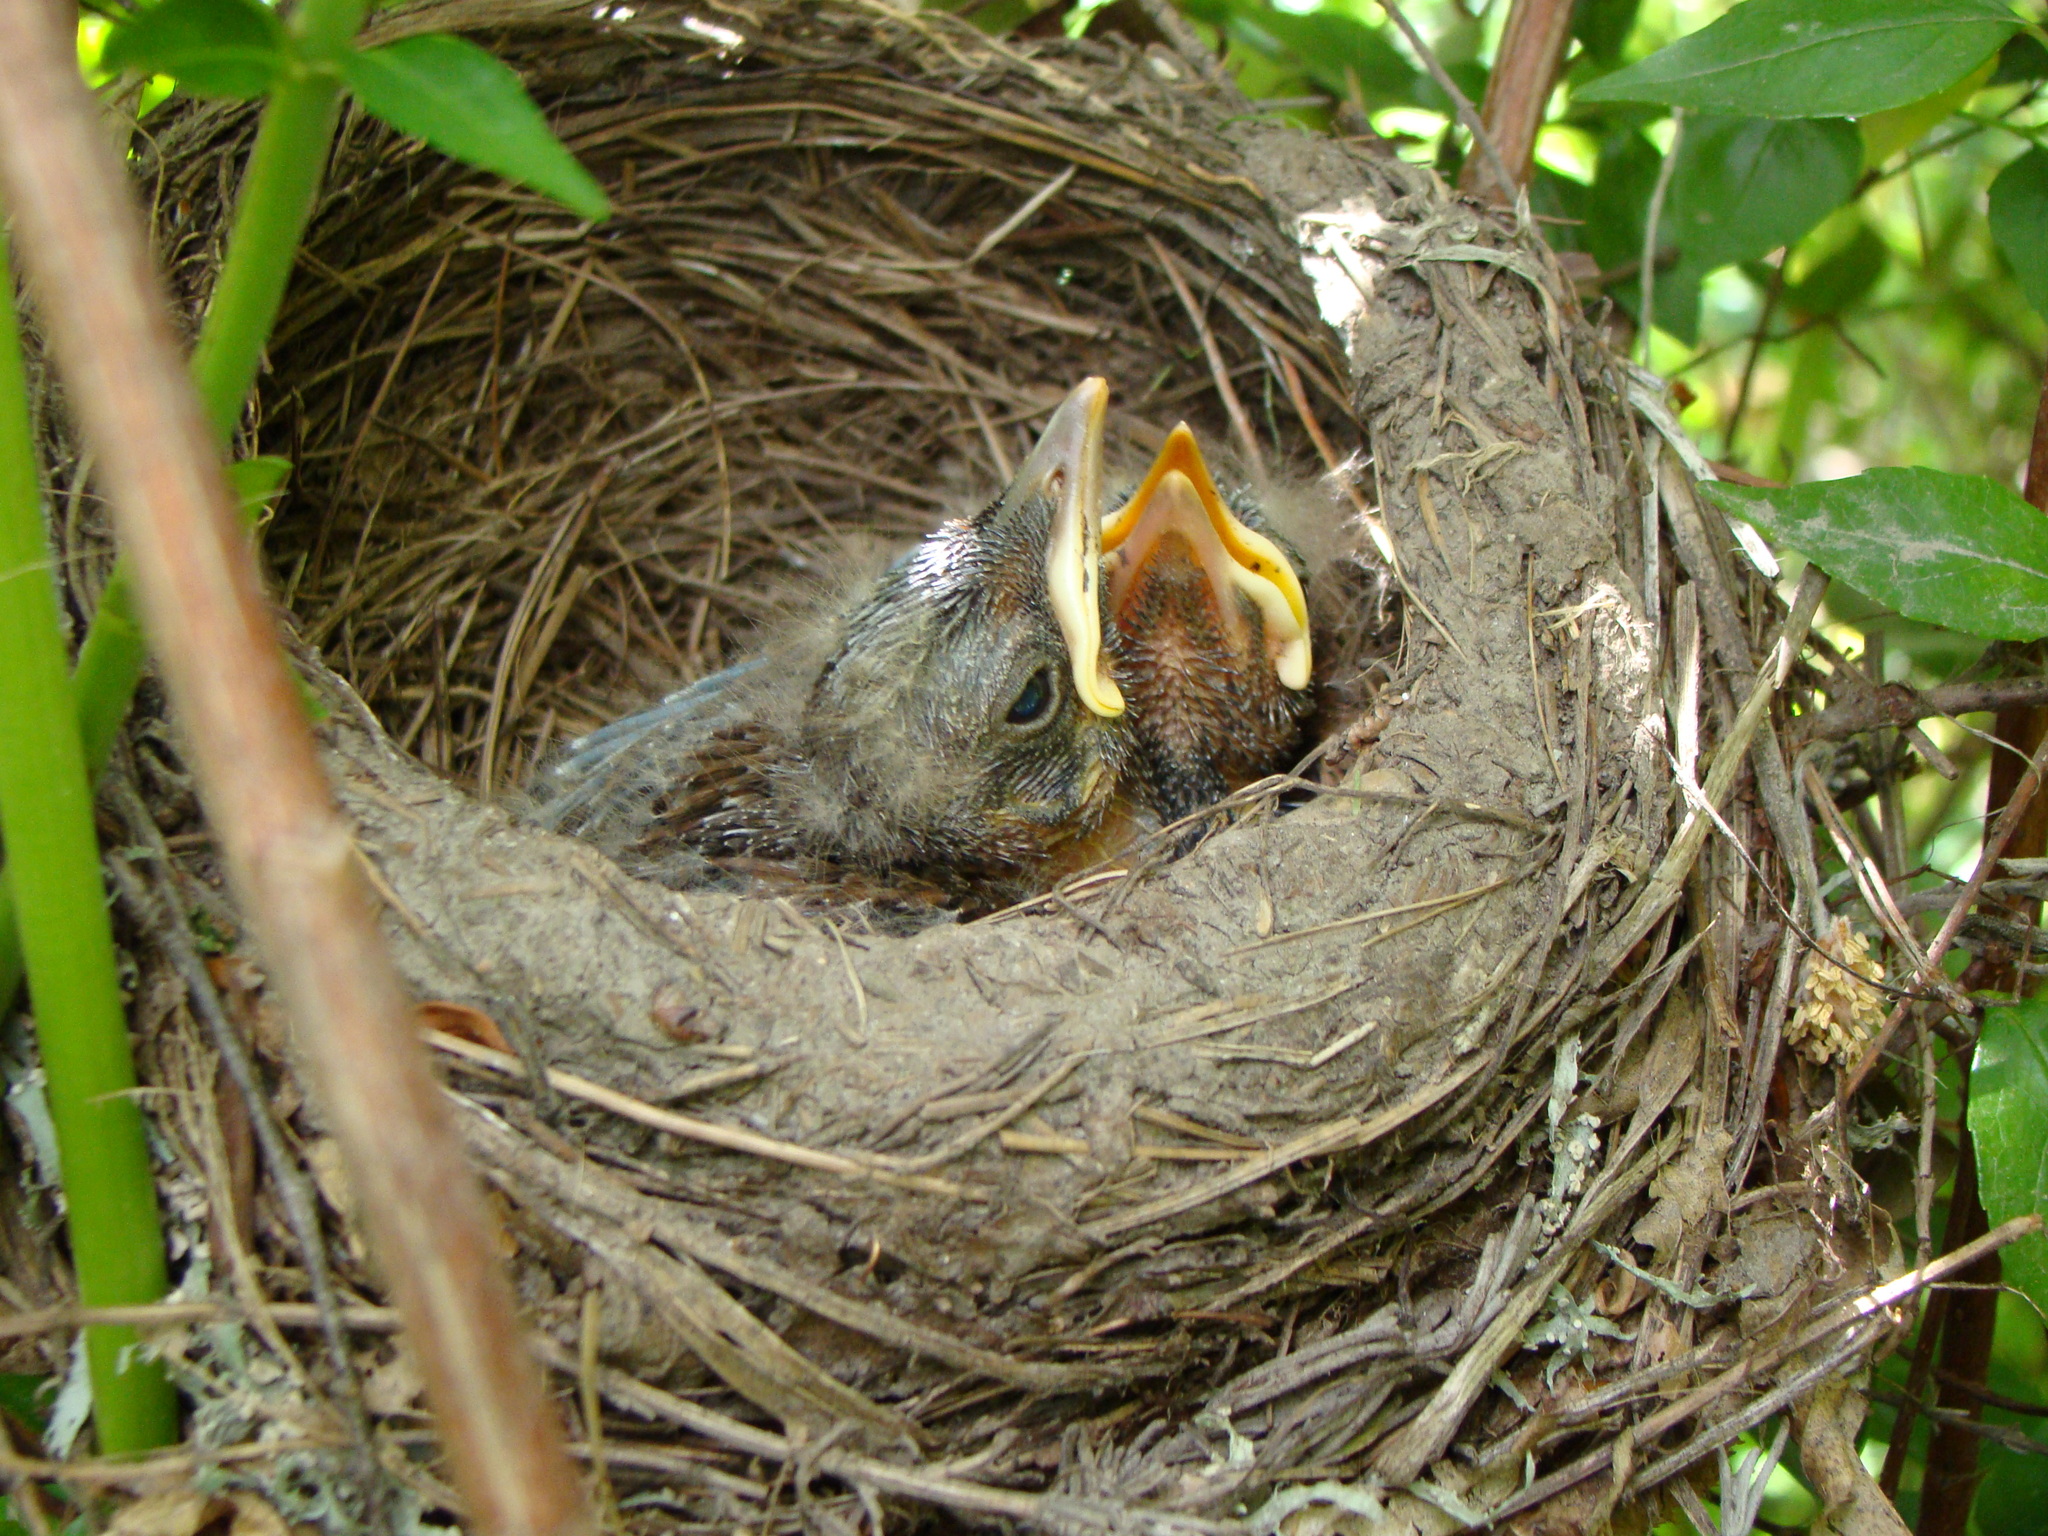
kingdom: Animalia
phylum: Chordata
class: Aves
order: Passeriformes
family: Turdidae
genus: Turdus
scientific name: Turdus merula
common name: Common blackbird
